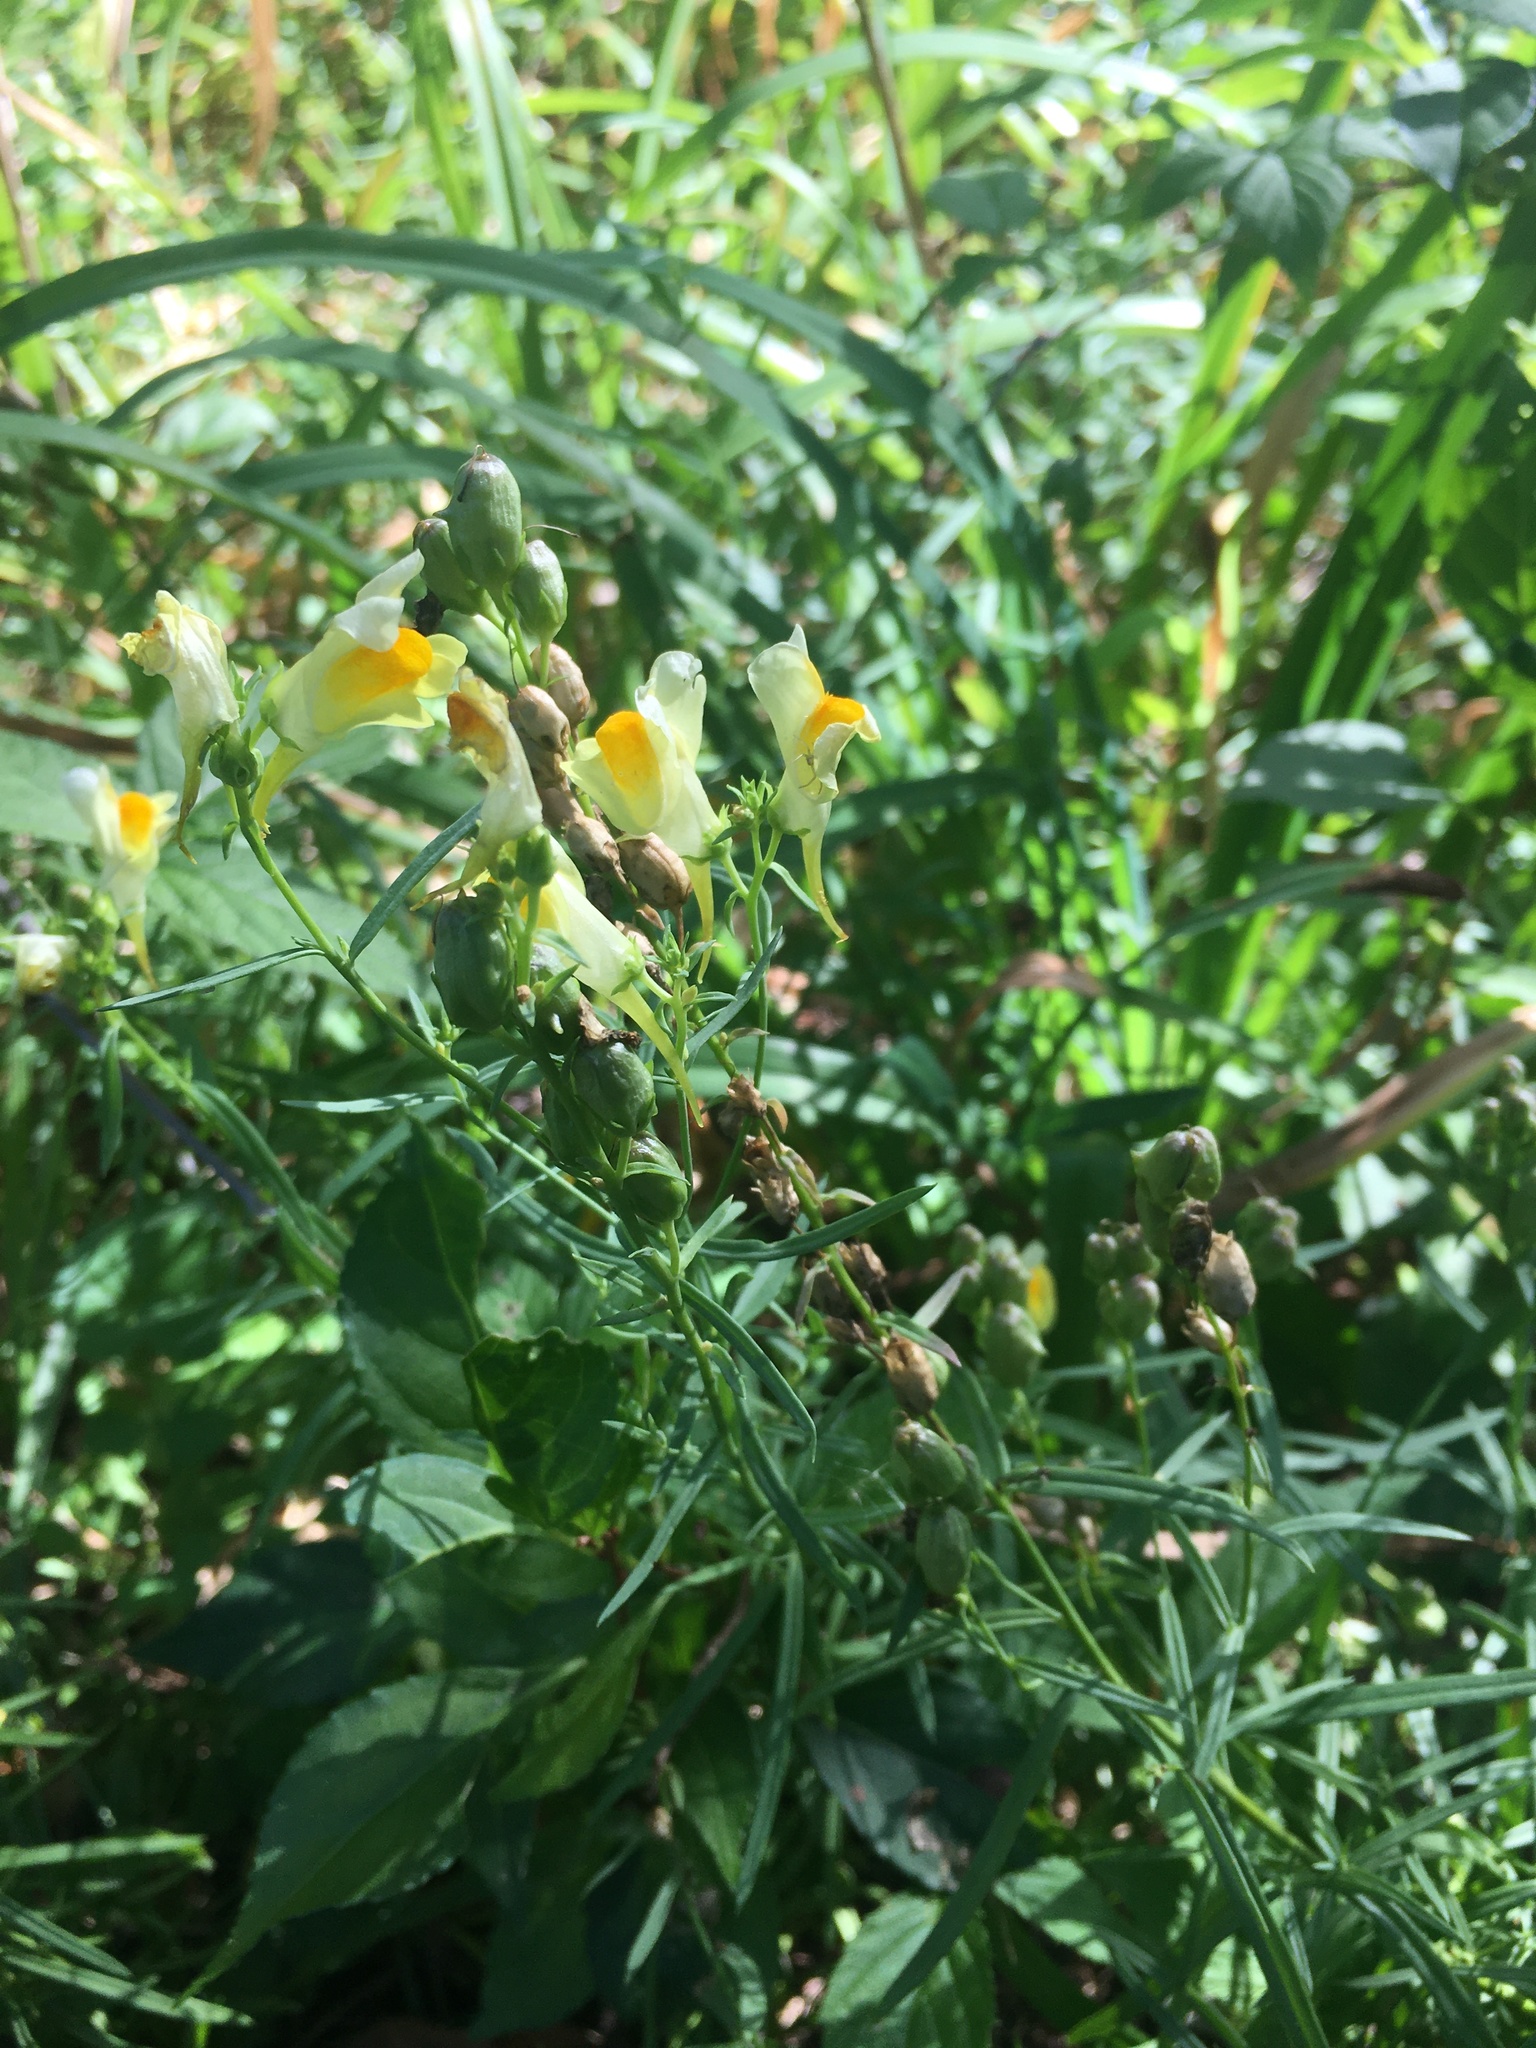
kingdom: Plantae
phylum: Tracheophyta
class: Magnoliopsida
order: Lamiales
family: Plantaginaceae
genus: Linaria
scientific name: Linaria vulgaris
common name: Butter and eggs
